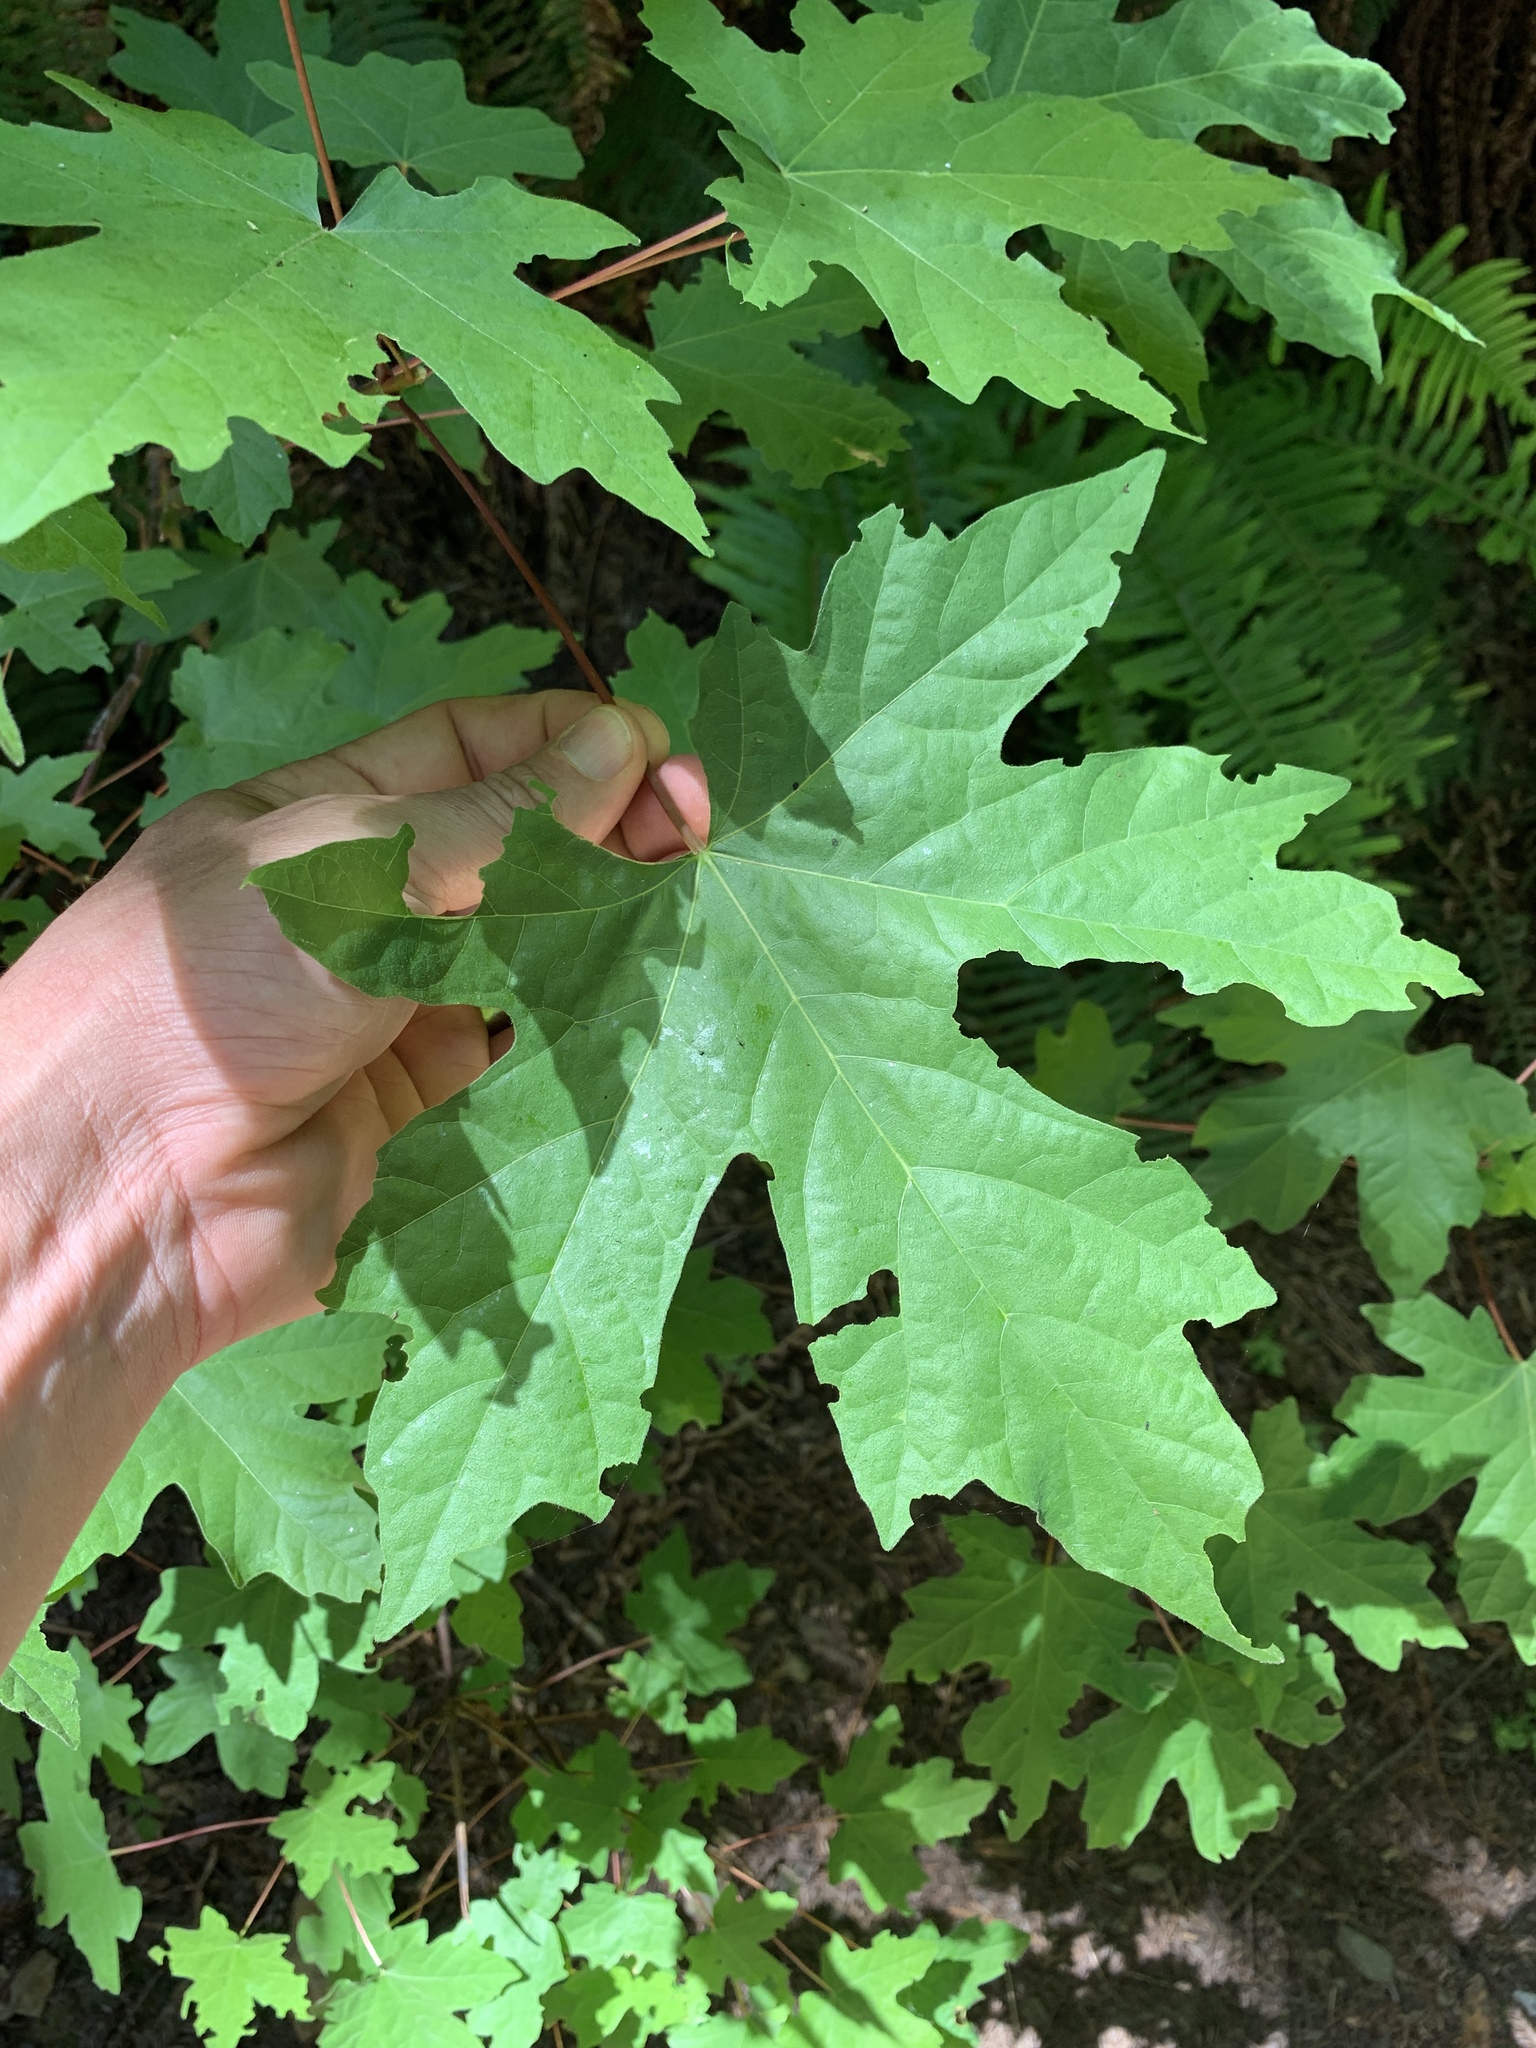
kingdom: Plantae
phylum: Tracheophyta
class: Magnoliopsida
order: Sapindales
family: Sapindaceae
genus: Acer
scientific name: Acer macrophyllum
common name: Oregon maple
